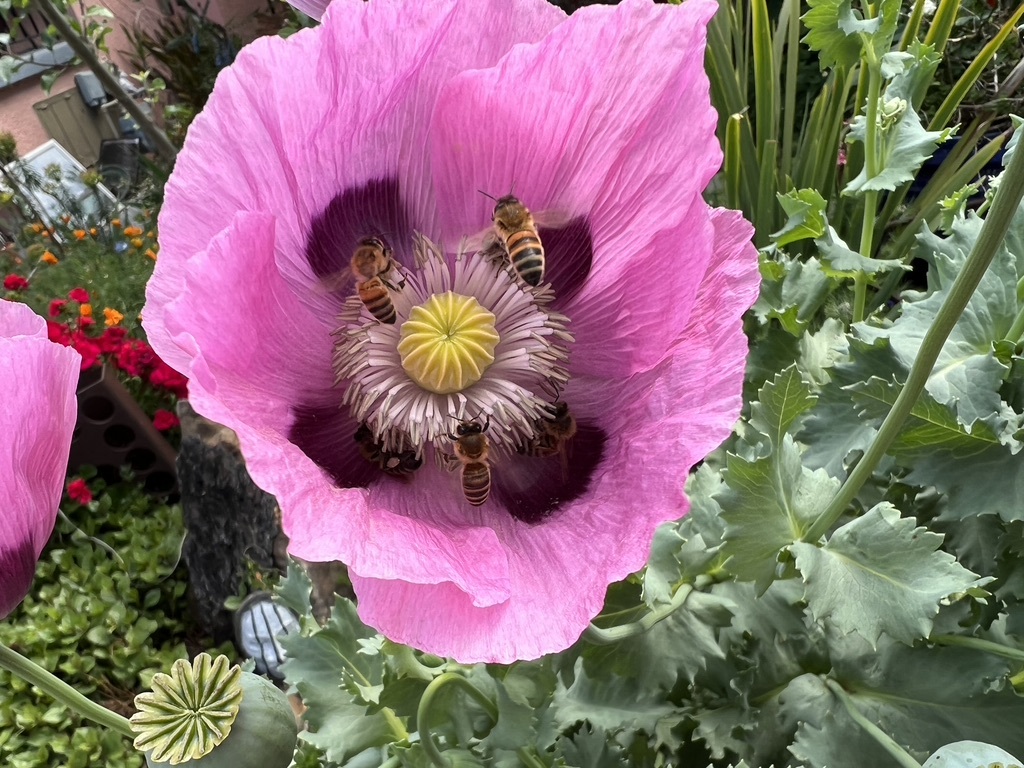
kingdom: Animalia
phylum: Arthropoda
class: Insecta
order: Hymenoptera
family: Apidae
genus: Apis
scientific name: Apis mellifera
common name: Honey bee
